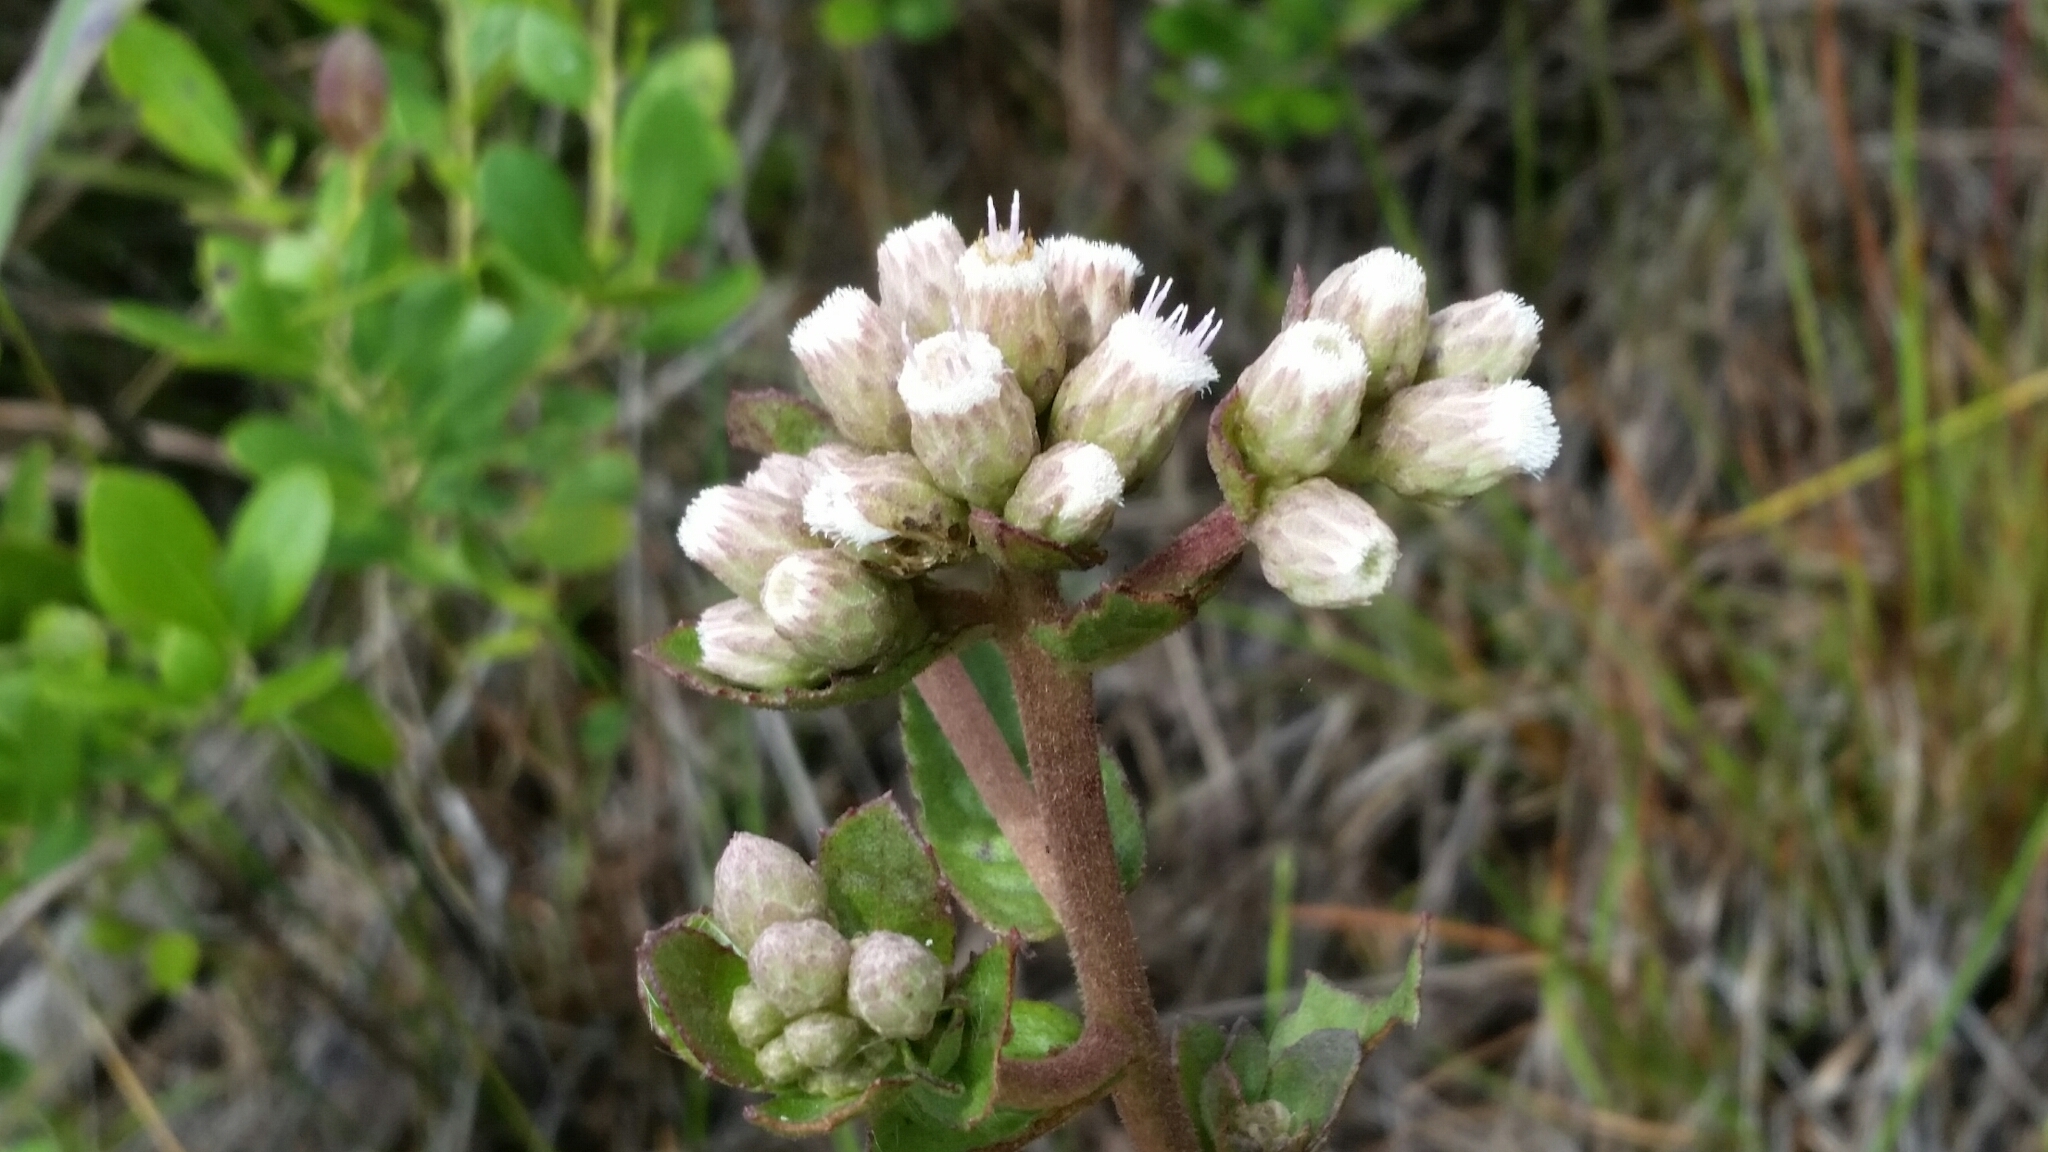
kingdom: Plantae
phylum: Tracheophyta
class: Magnoliopsida
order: Asterales
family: Asteraceae
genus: Pluchea
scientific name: Pluchea foetida
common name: Stinking camphorweed
